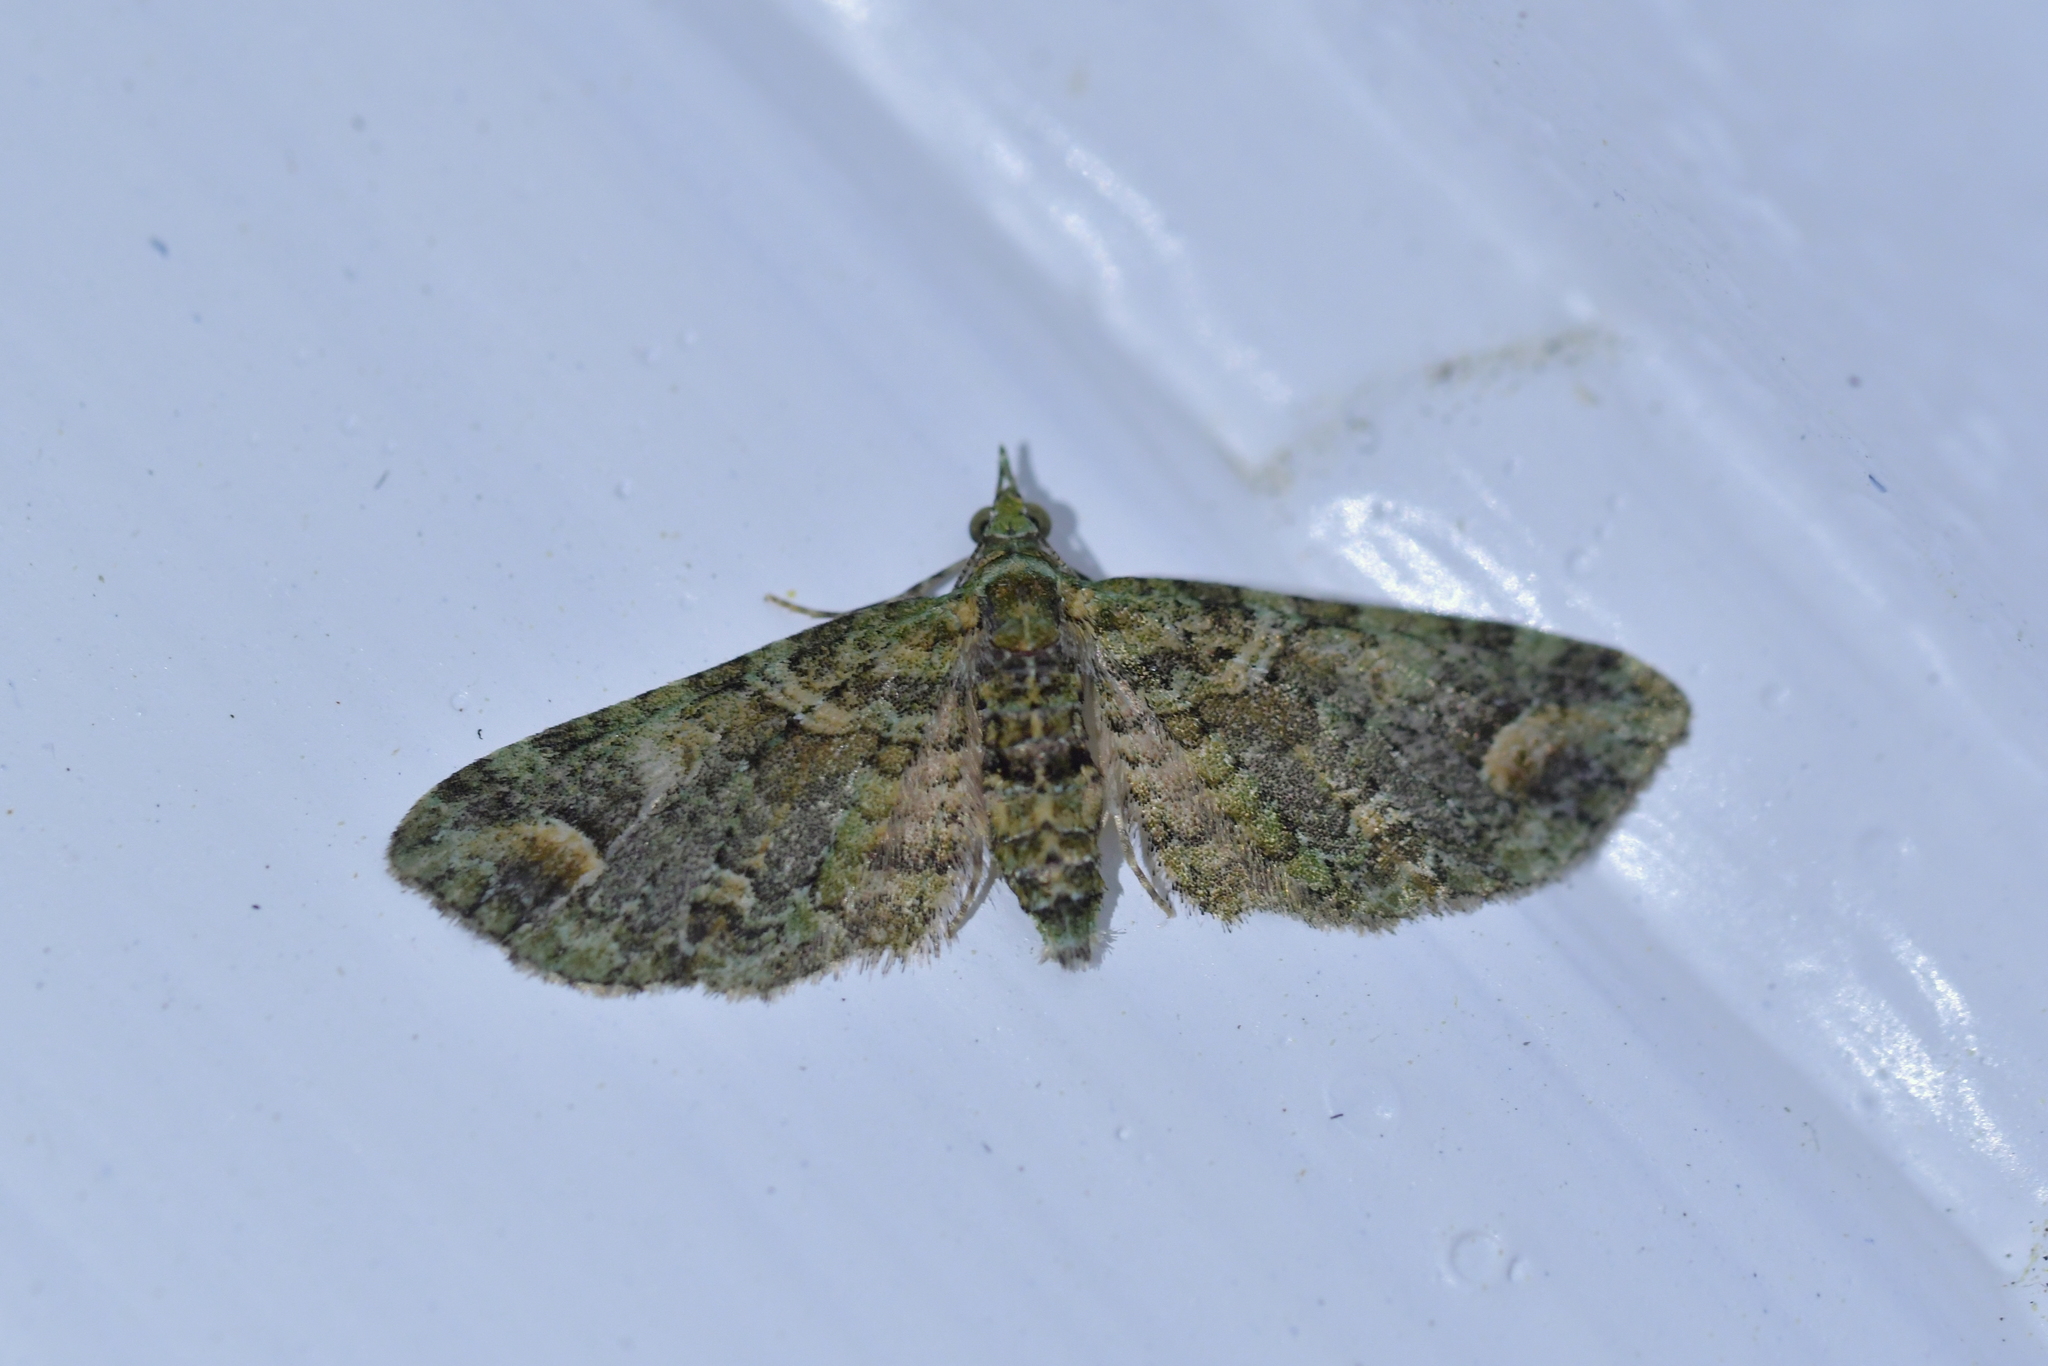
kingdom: Animalia
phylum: Arthropoda
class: Insecta
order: Lepidoptera
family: Geometridae
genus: Idaea
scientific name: Idaea mutanda
